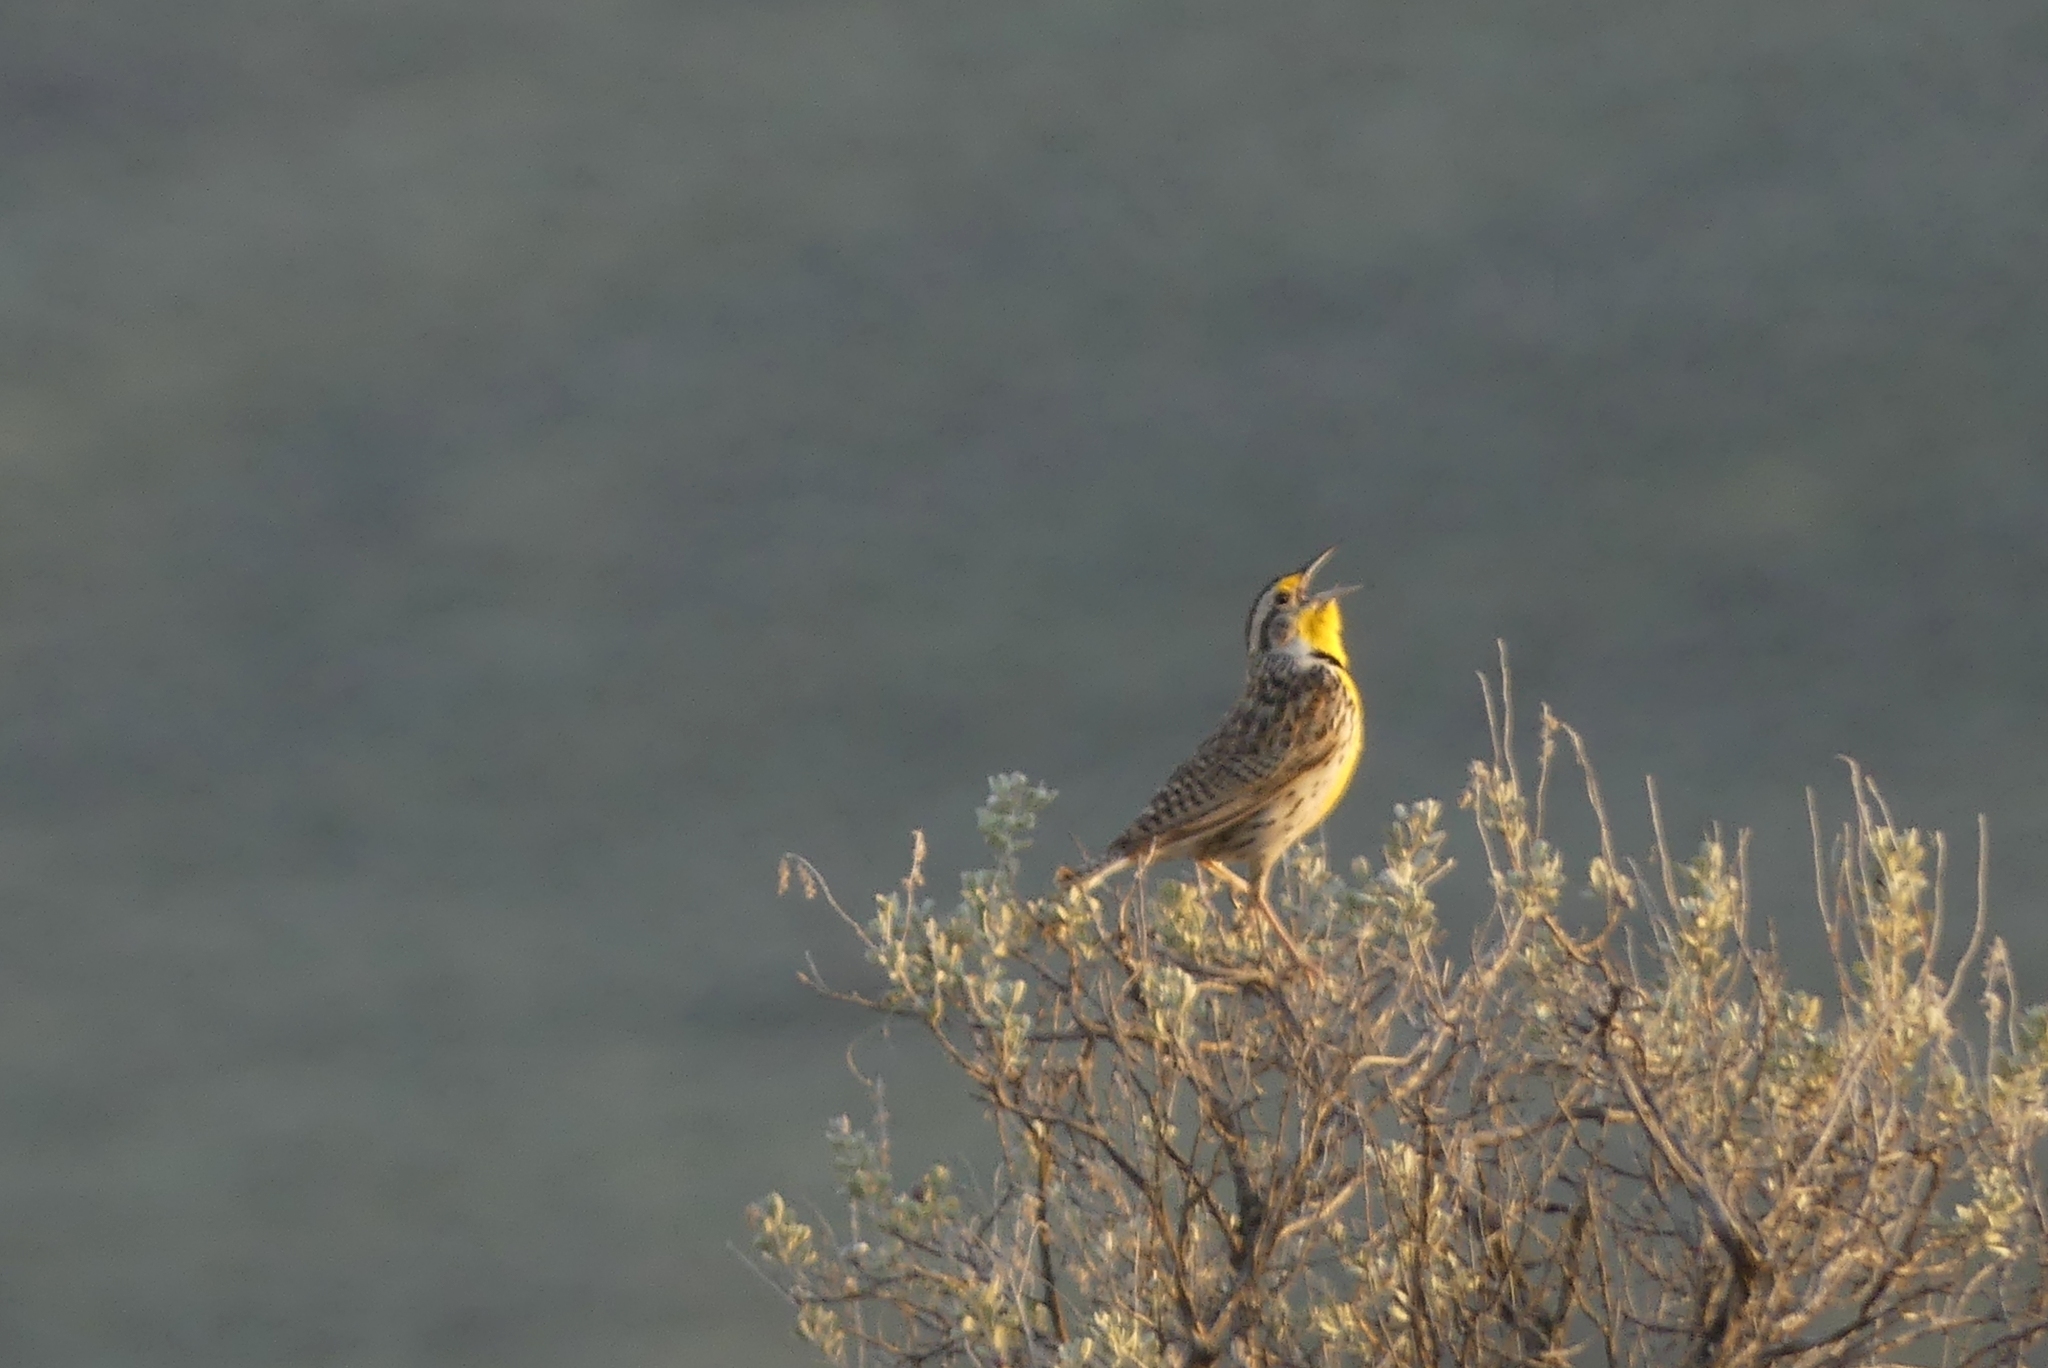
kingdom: Animalia
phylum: Chordata
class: Aves
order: Passeriformes
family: Icteridae
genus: Sturnella
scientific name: Sturnella neglecta
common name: Western meadowlark
